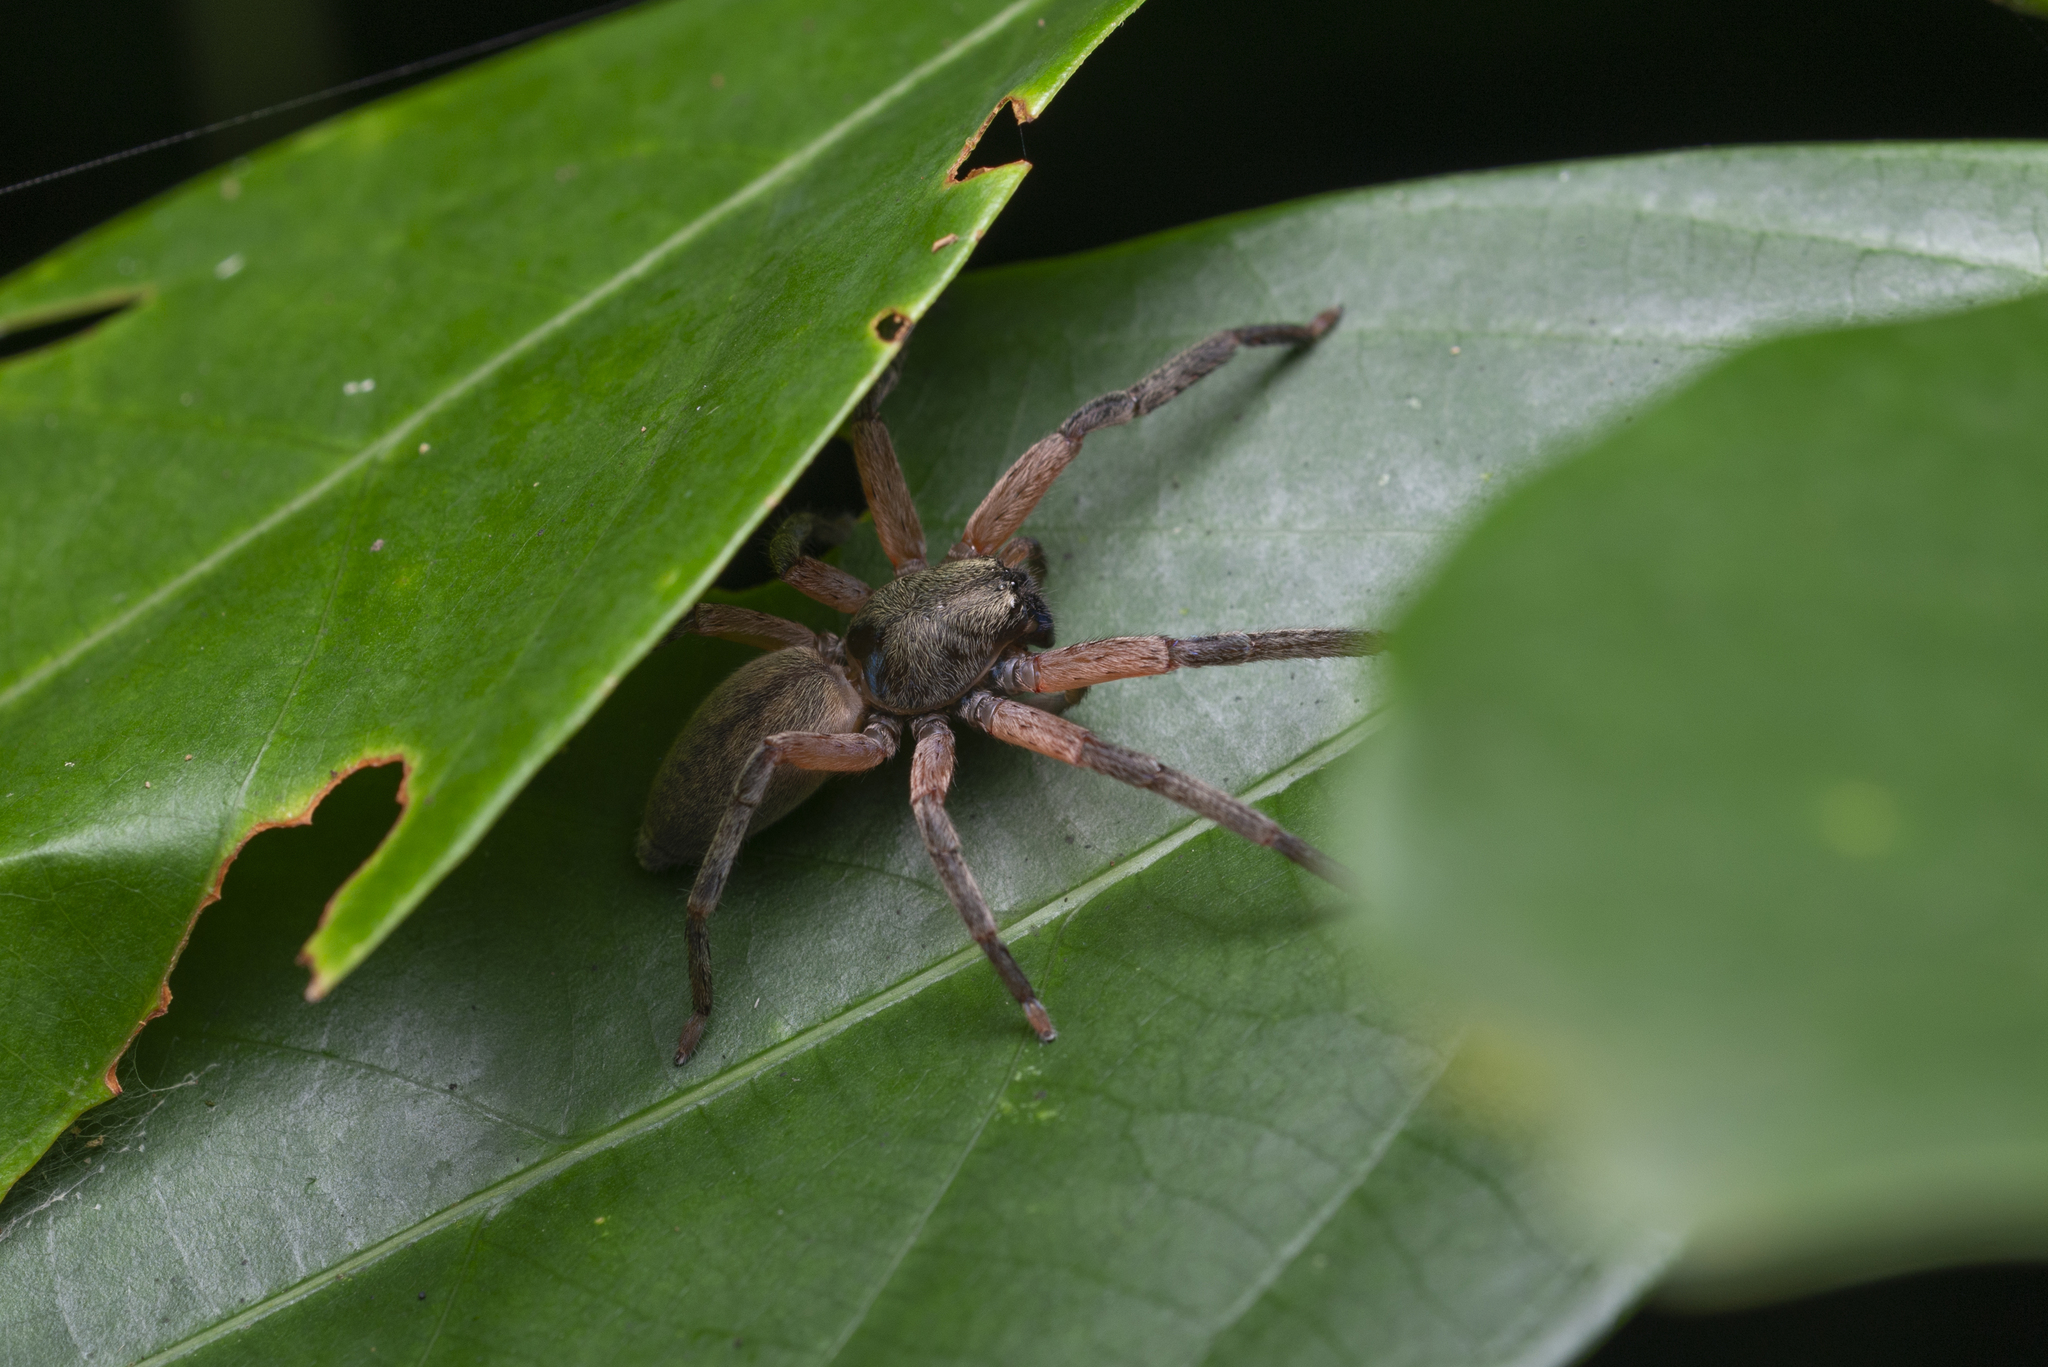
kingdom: Animalia
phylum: Arthropoda
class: Arachnida
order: Araneae
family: Sparassidae
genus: Thelcticopis
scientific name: Thelcticopis severa
